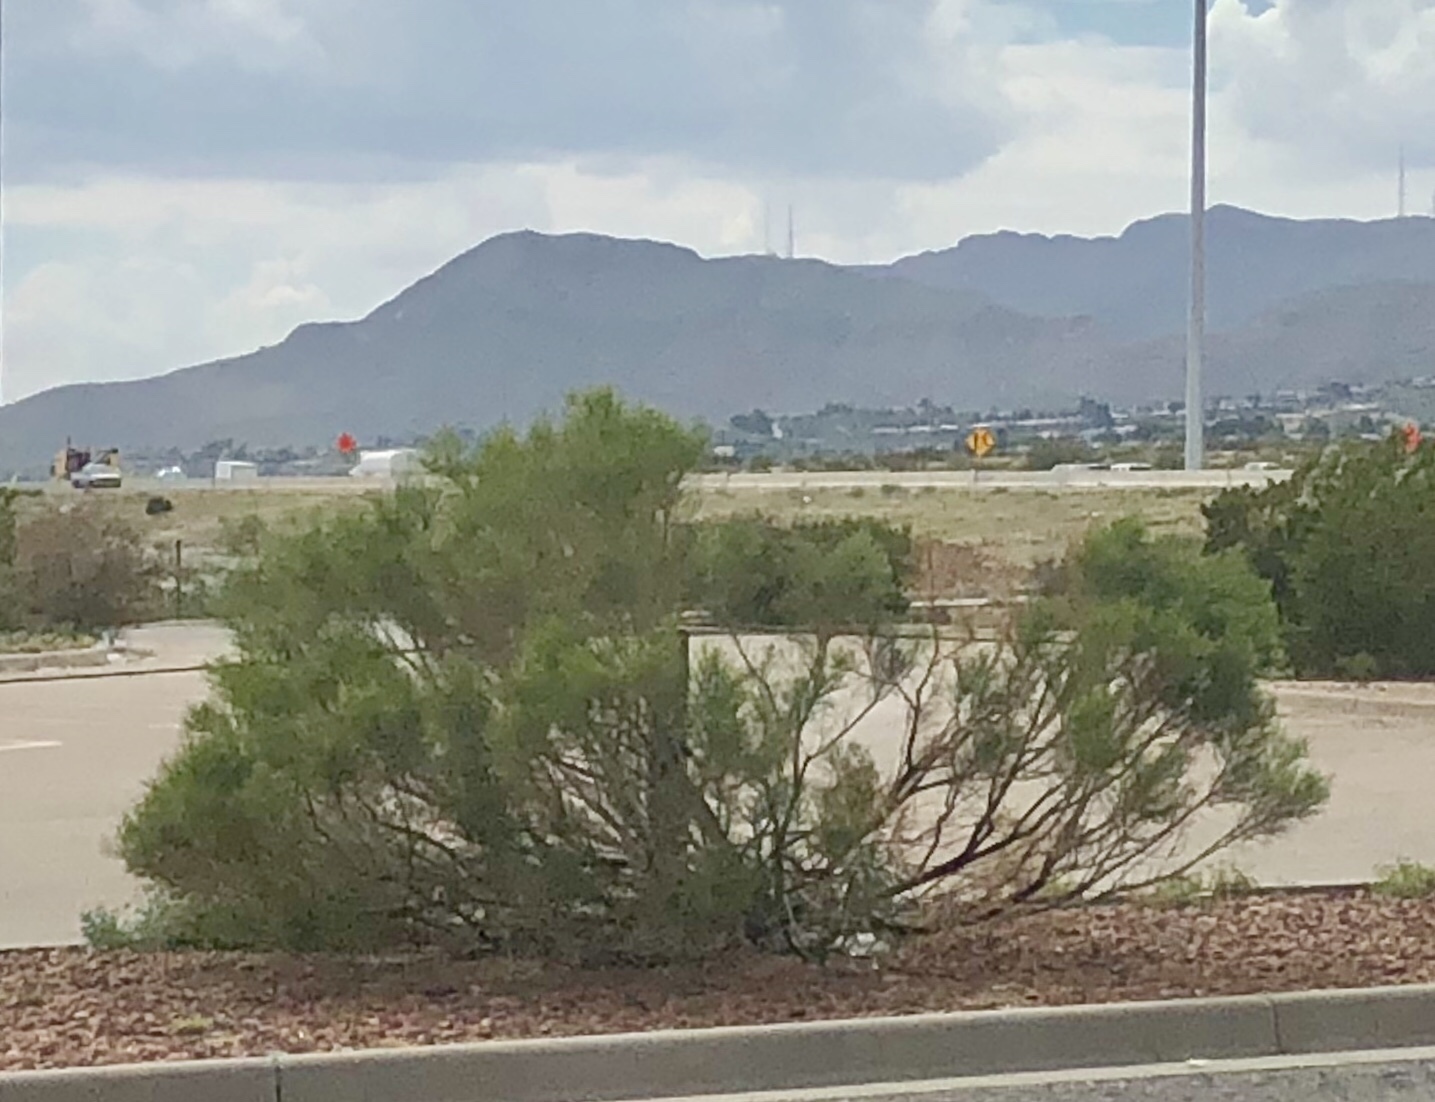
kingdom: Plantae
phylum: Tracheophyta
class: Magnoliopsida
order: Asterales
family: Asteraceae
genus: Baccharis
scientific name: Baccharis sarothroides
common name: Desert-broom
